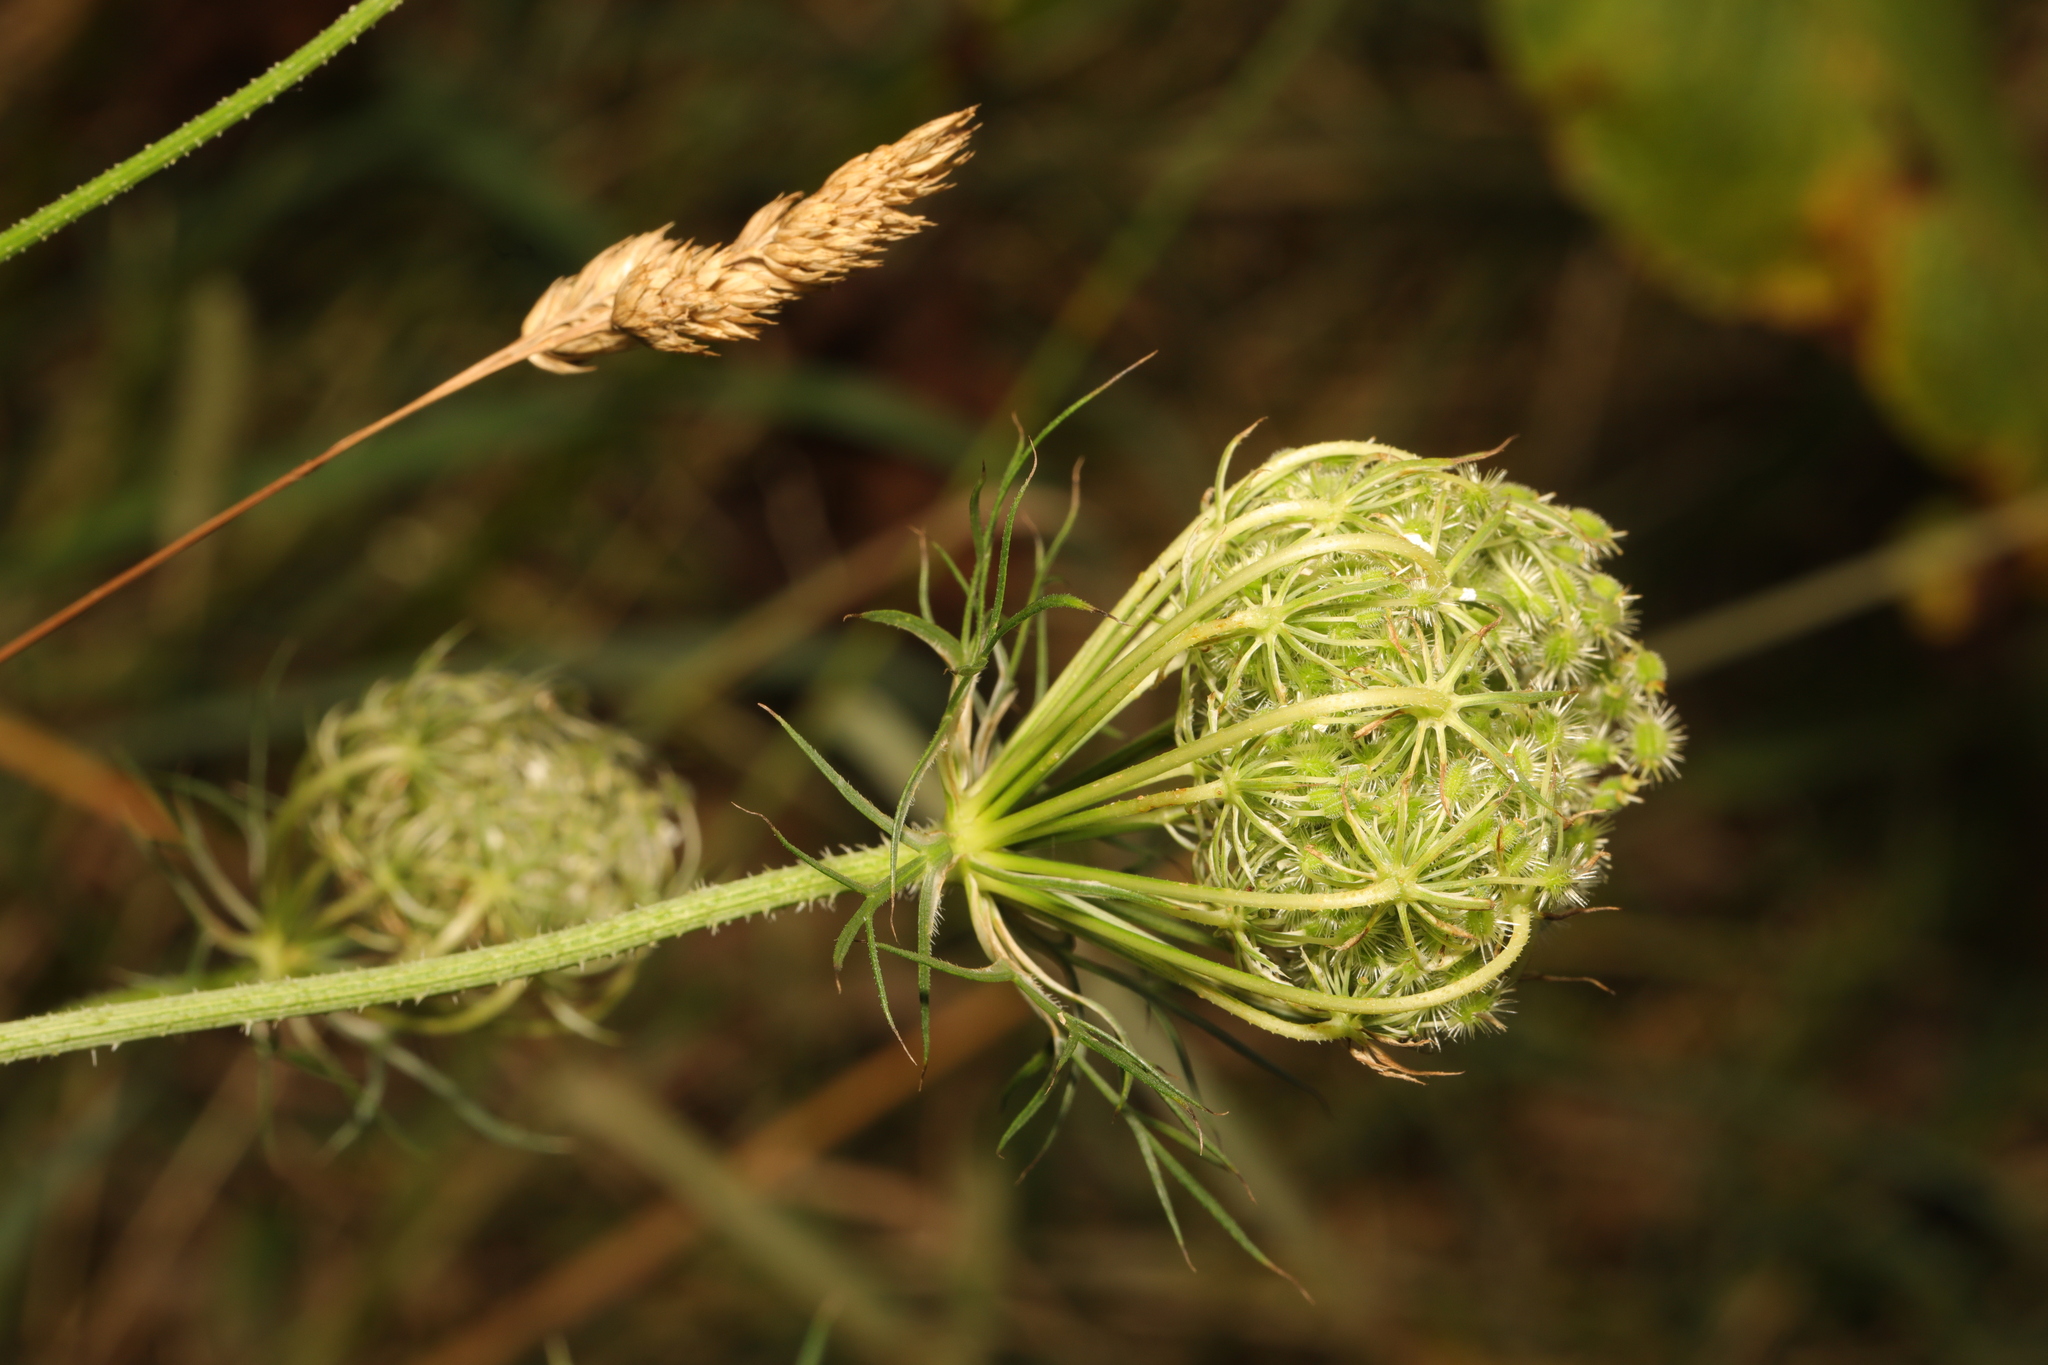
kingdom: Plantae
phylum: Tracheophyta
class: Magnoliopsida
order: Apiales
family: Apiaceae
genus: Daucus
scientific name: Daucus carota
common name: Wild carrot
